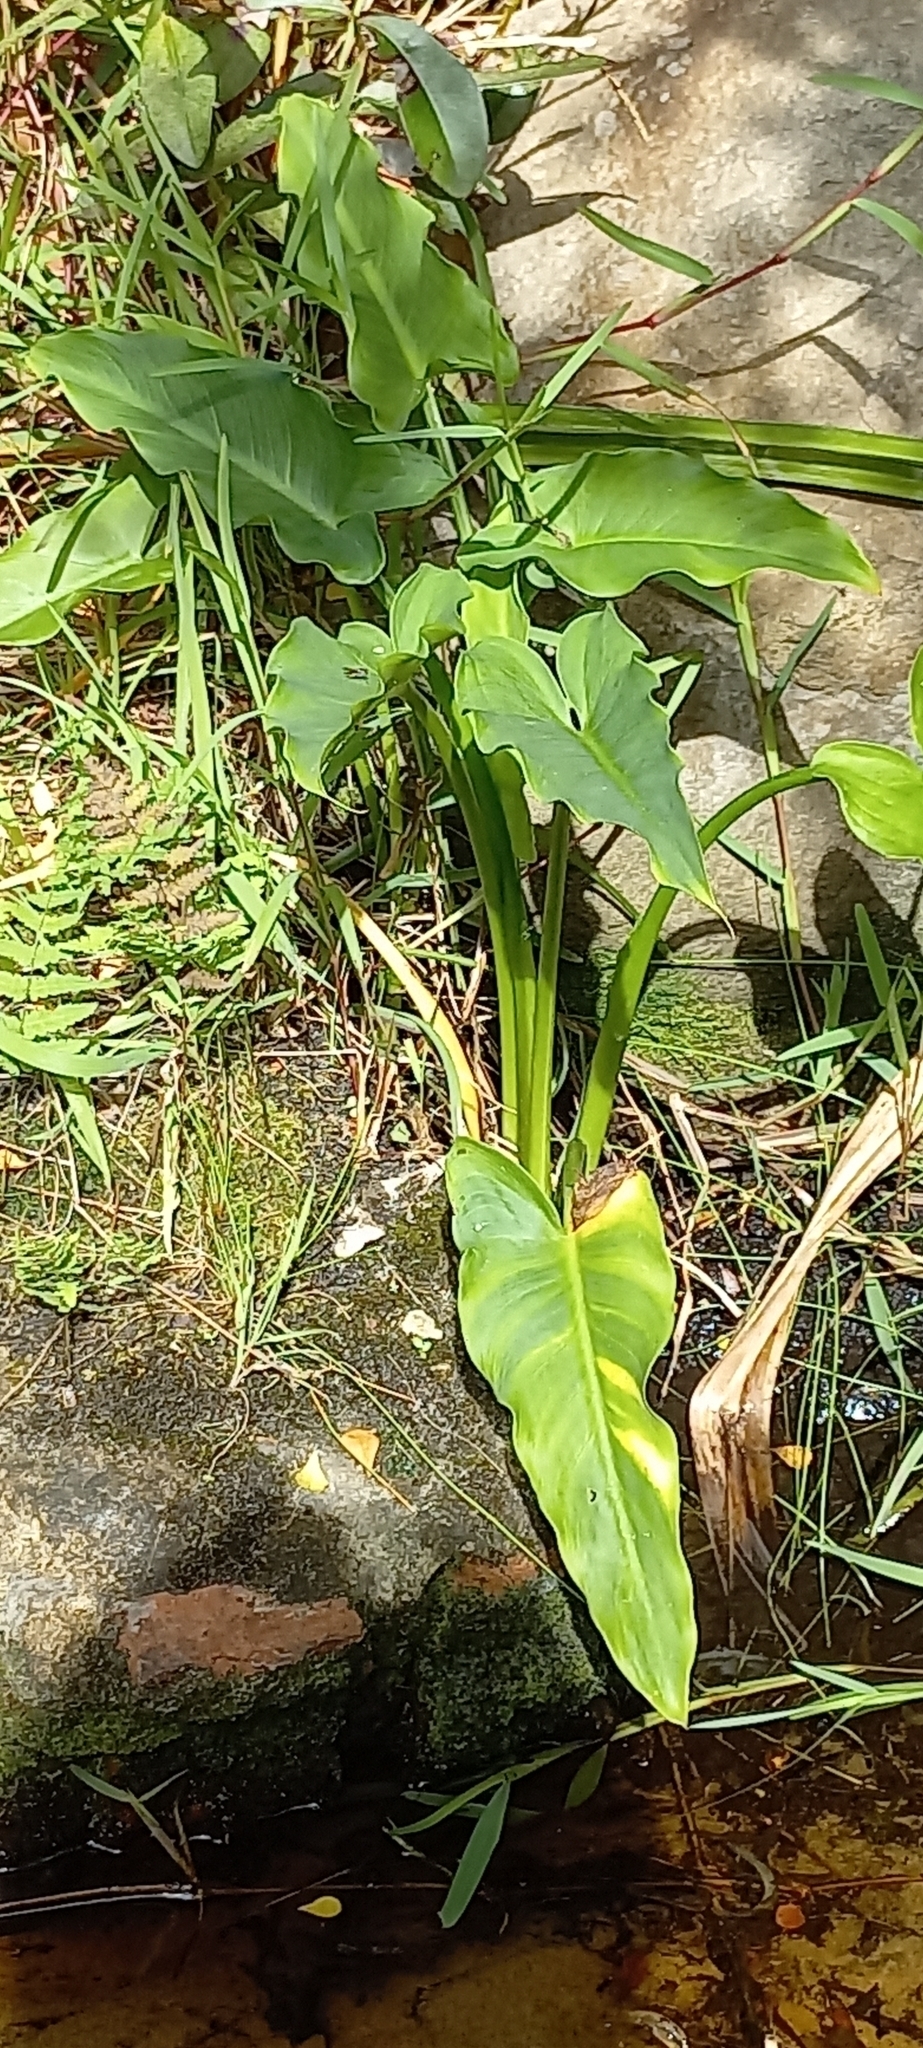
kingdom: Plantae
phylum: Tracheophyta
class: Liliopsida
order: Alismatales
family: Araceae
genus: Zantedeschia
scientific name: Zantedeschia aethiopica
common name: Altar-lily
